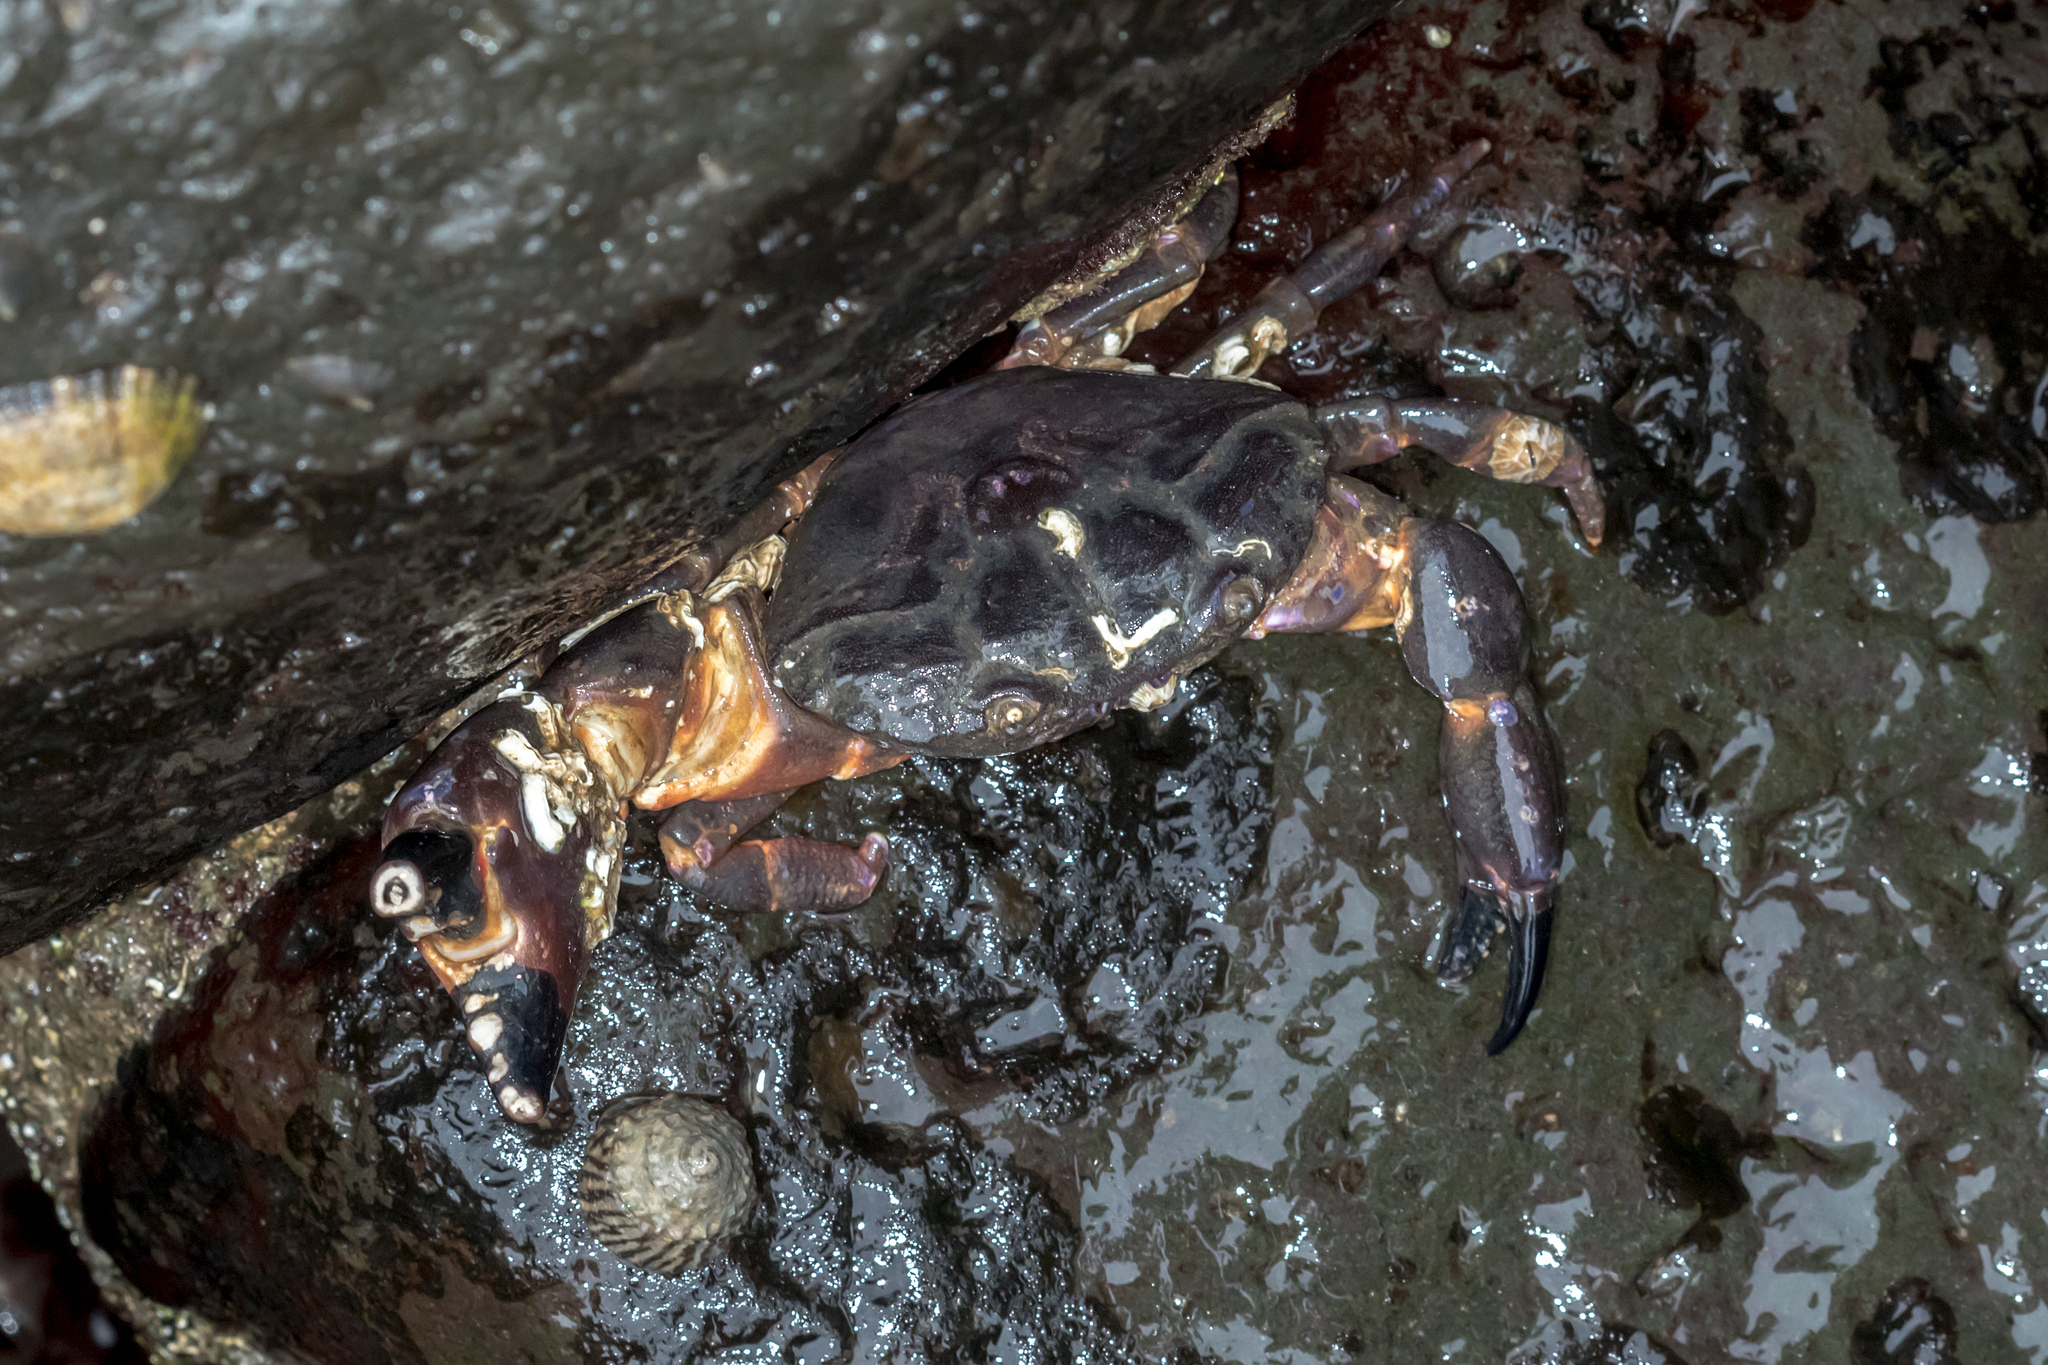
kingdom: Animalia
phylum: Arthropoda
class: Malacostraca
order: Decapoda
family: Oziidae
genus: Ozius
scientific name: Ozius truncatus
